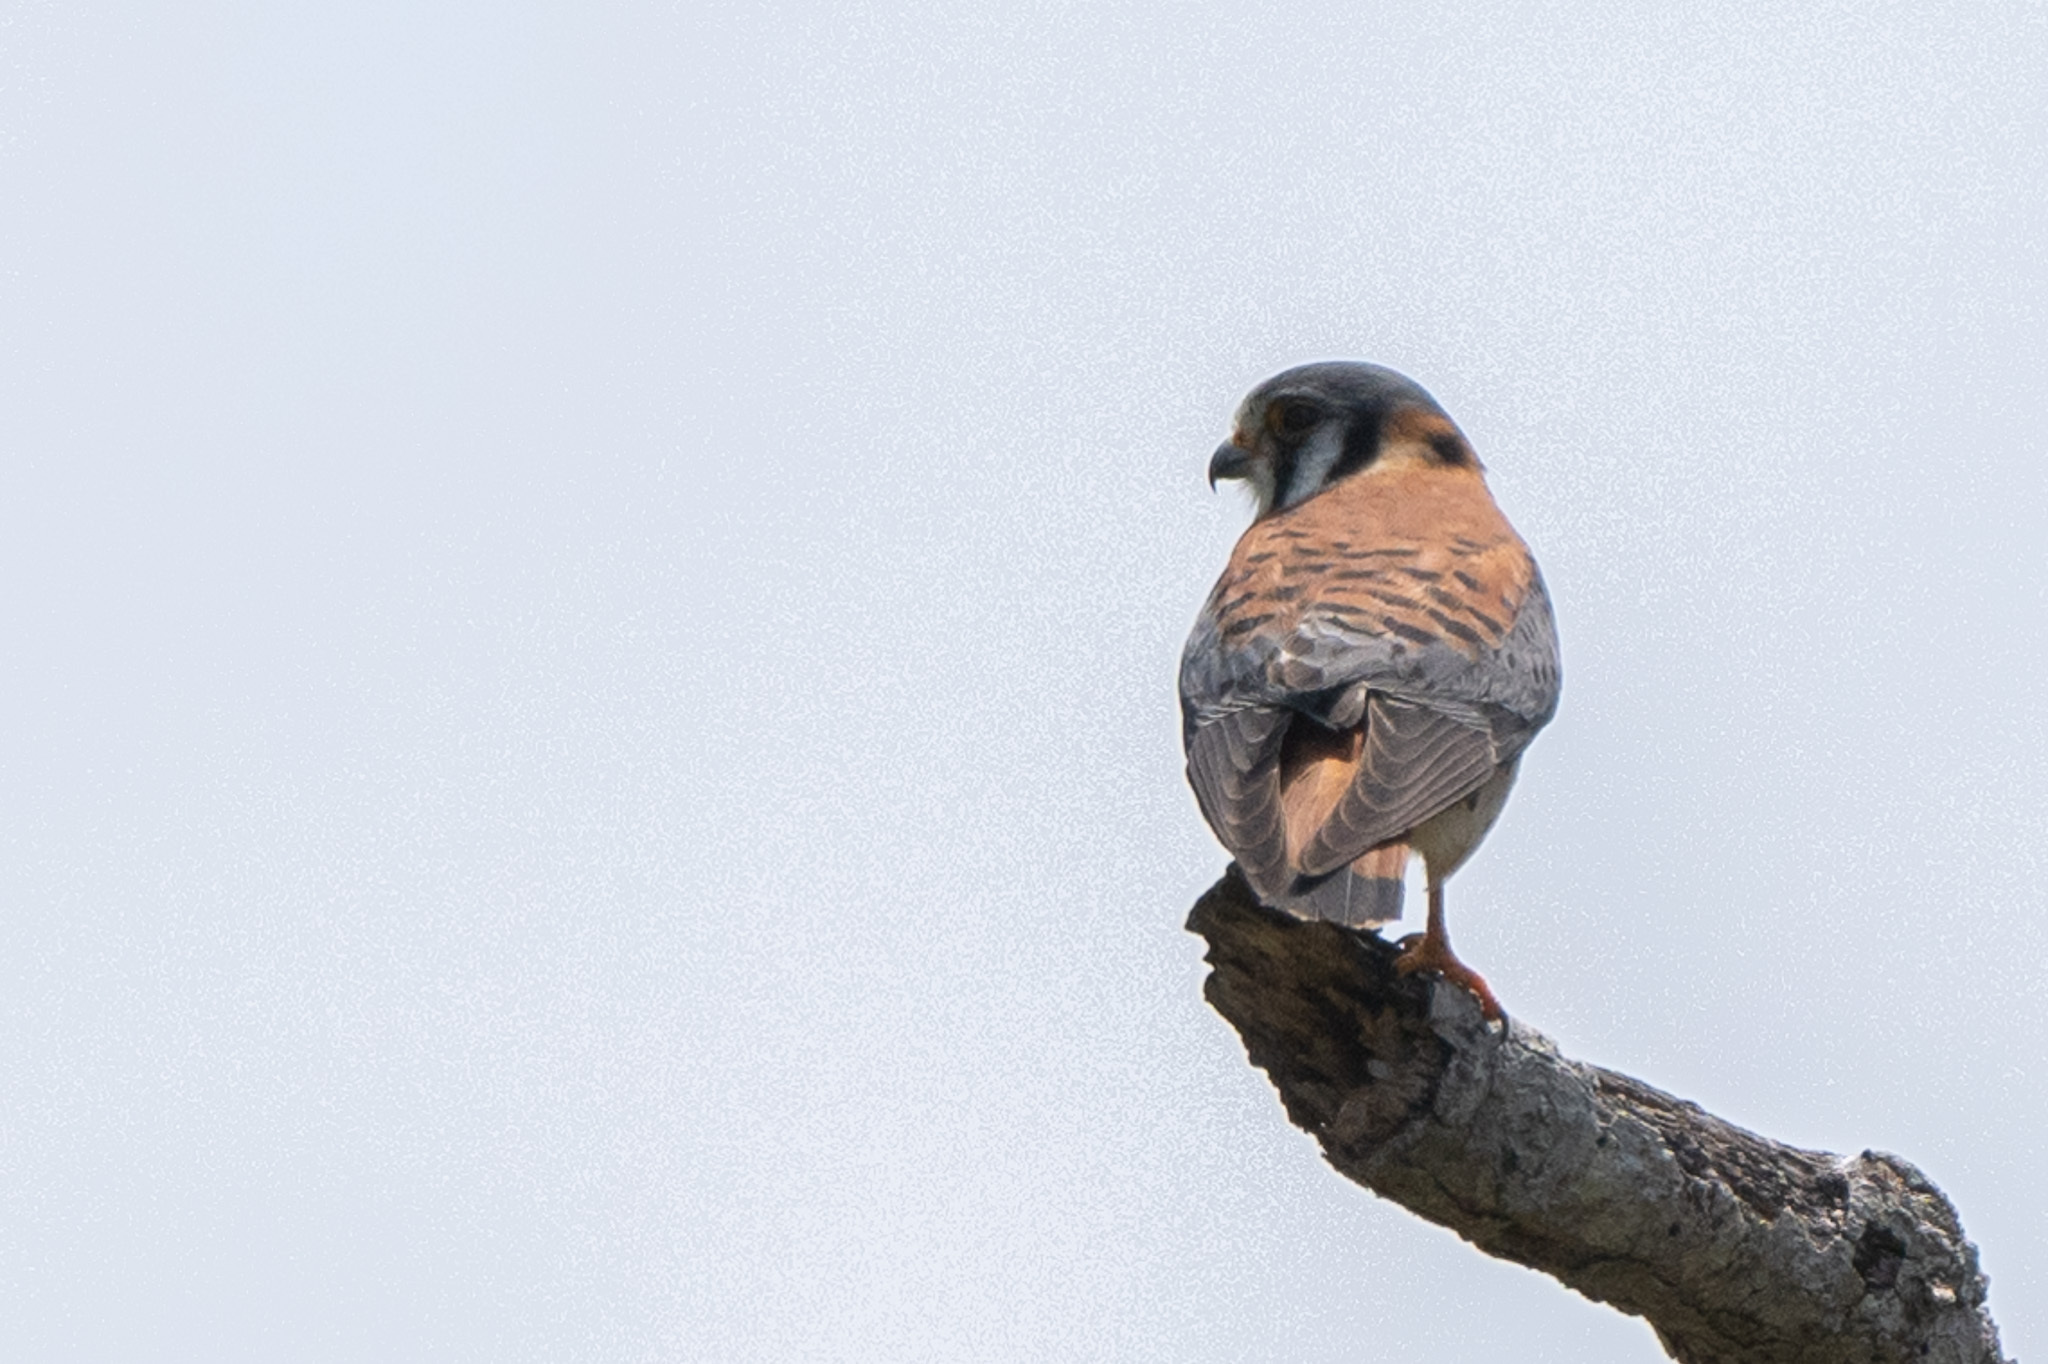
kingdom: Animalia
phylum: Chordata
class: Aves
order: Falconiformes
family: Falconidae
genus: Falco
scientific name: Falco sparverius
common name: American kestrel
